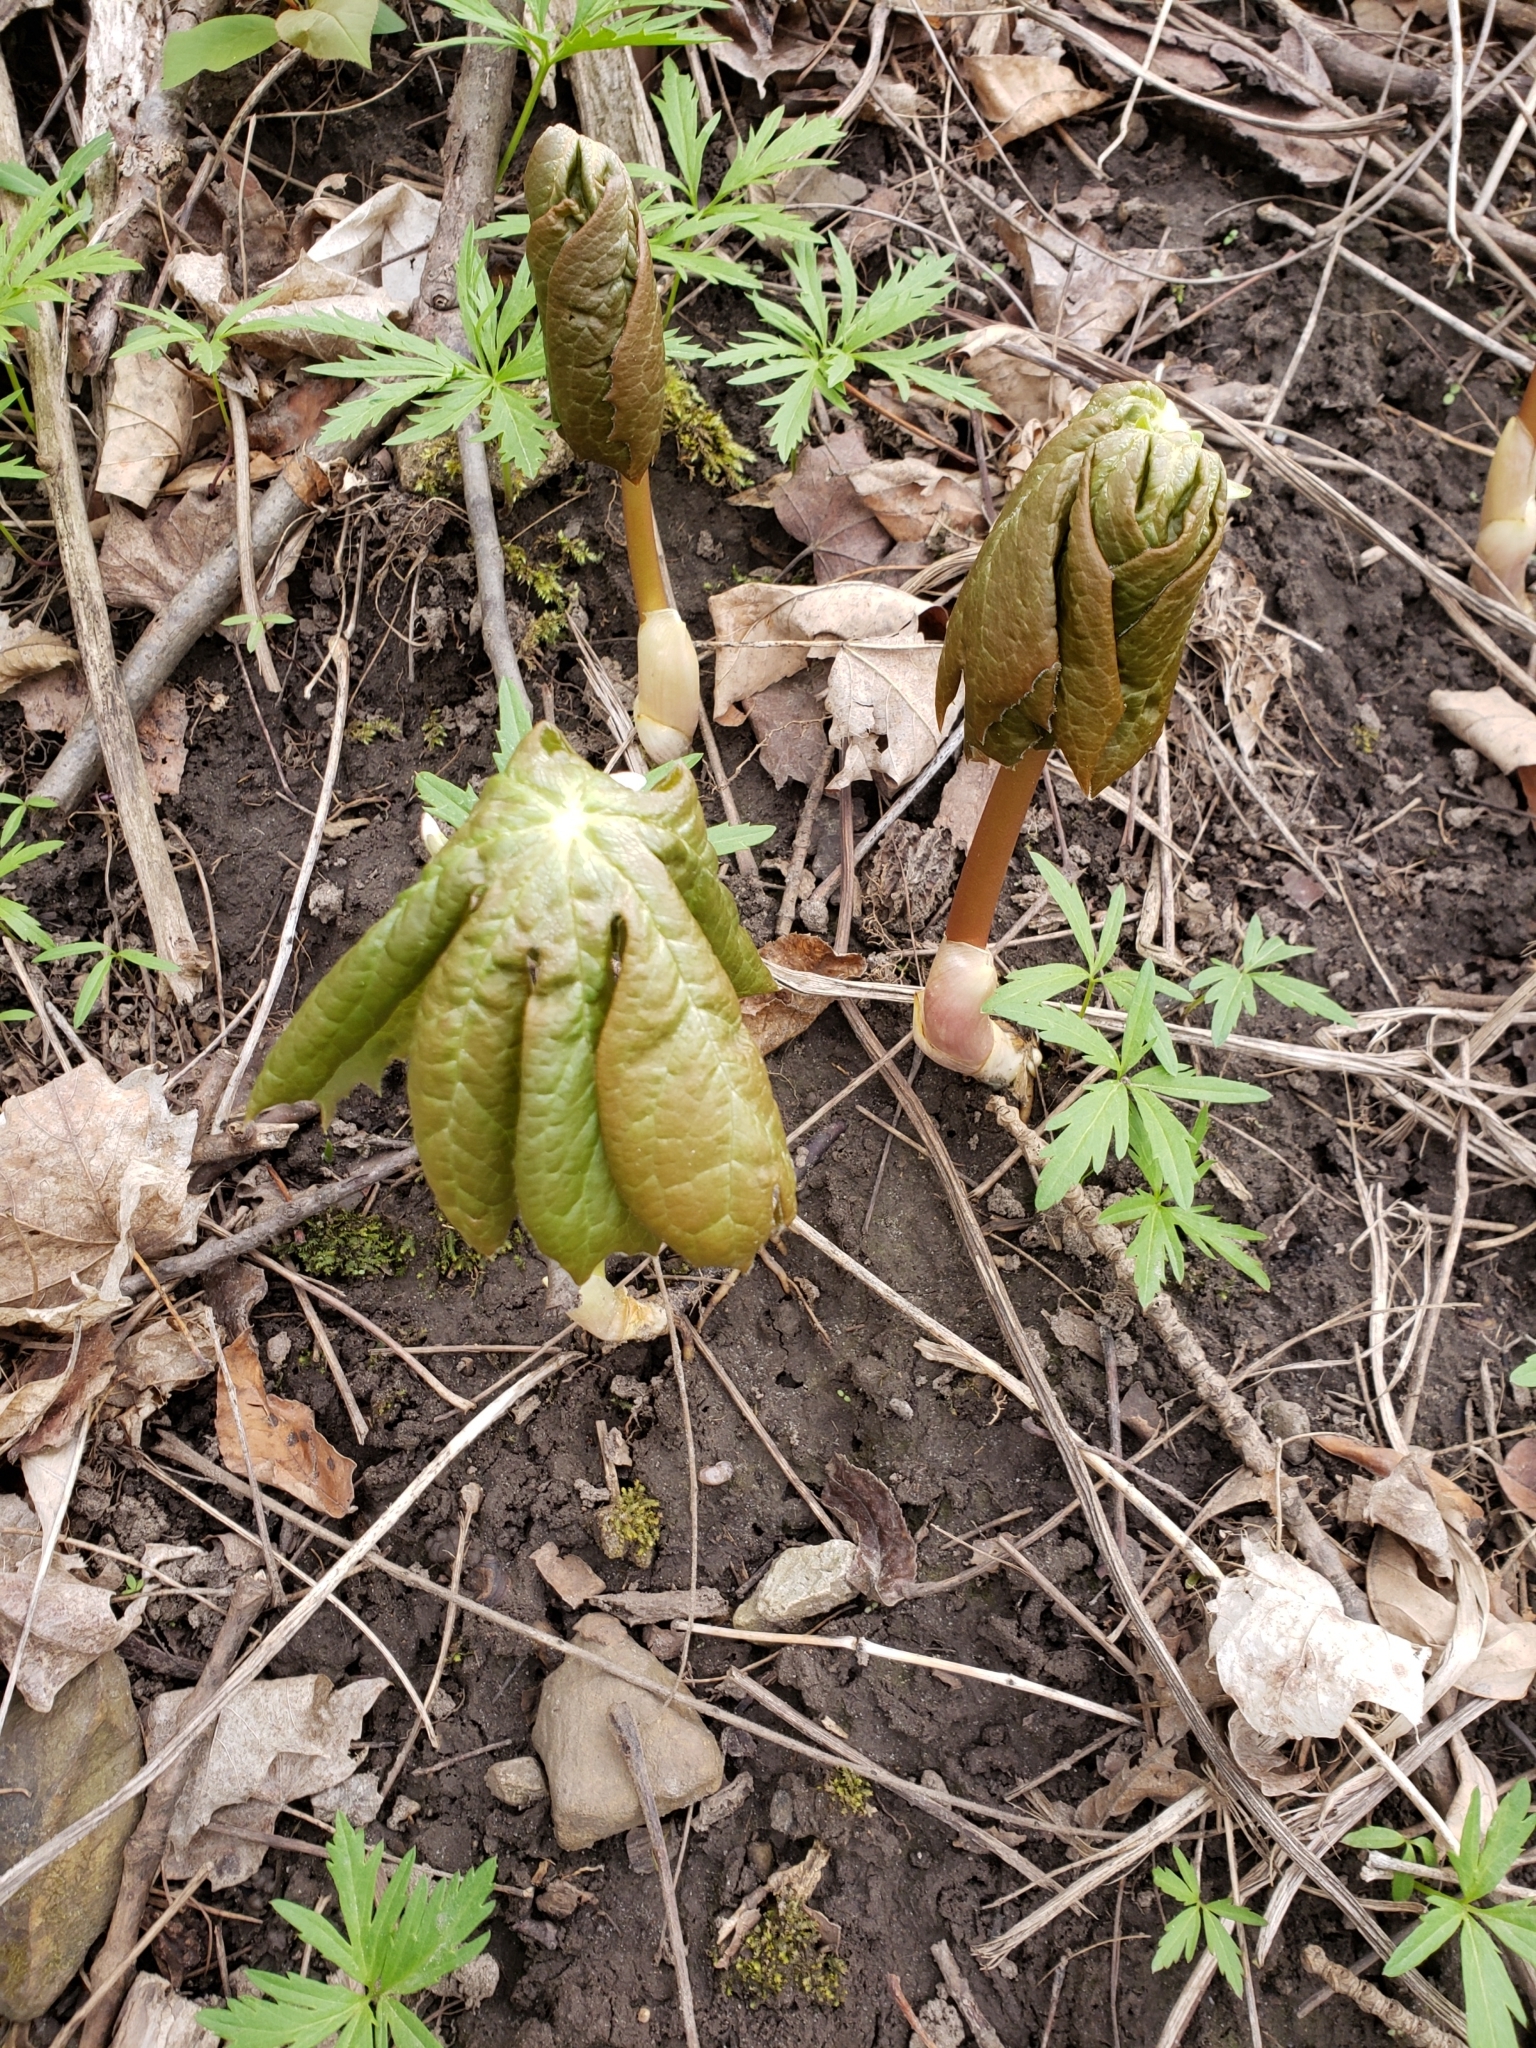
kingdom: Plantae
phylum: Tracheophyta
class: Magnoliopsida
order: Ranunculales
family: Berberidaceae
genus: Podophyllum
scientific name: Podophyllum peltatum
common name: Wild mandrake
